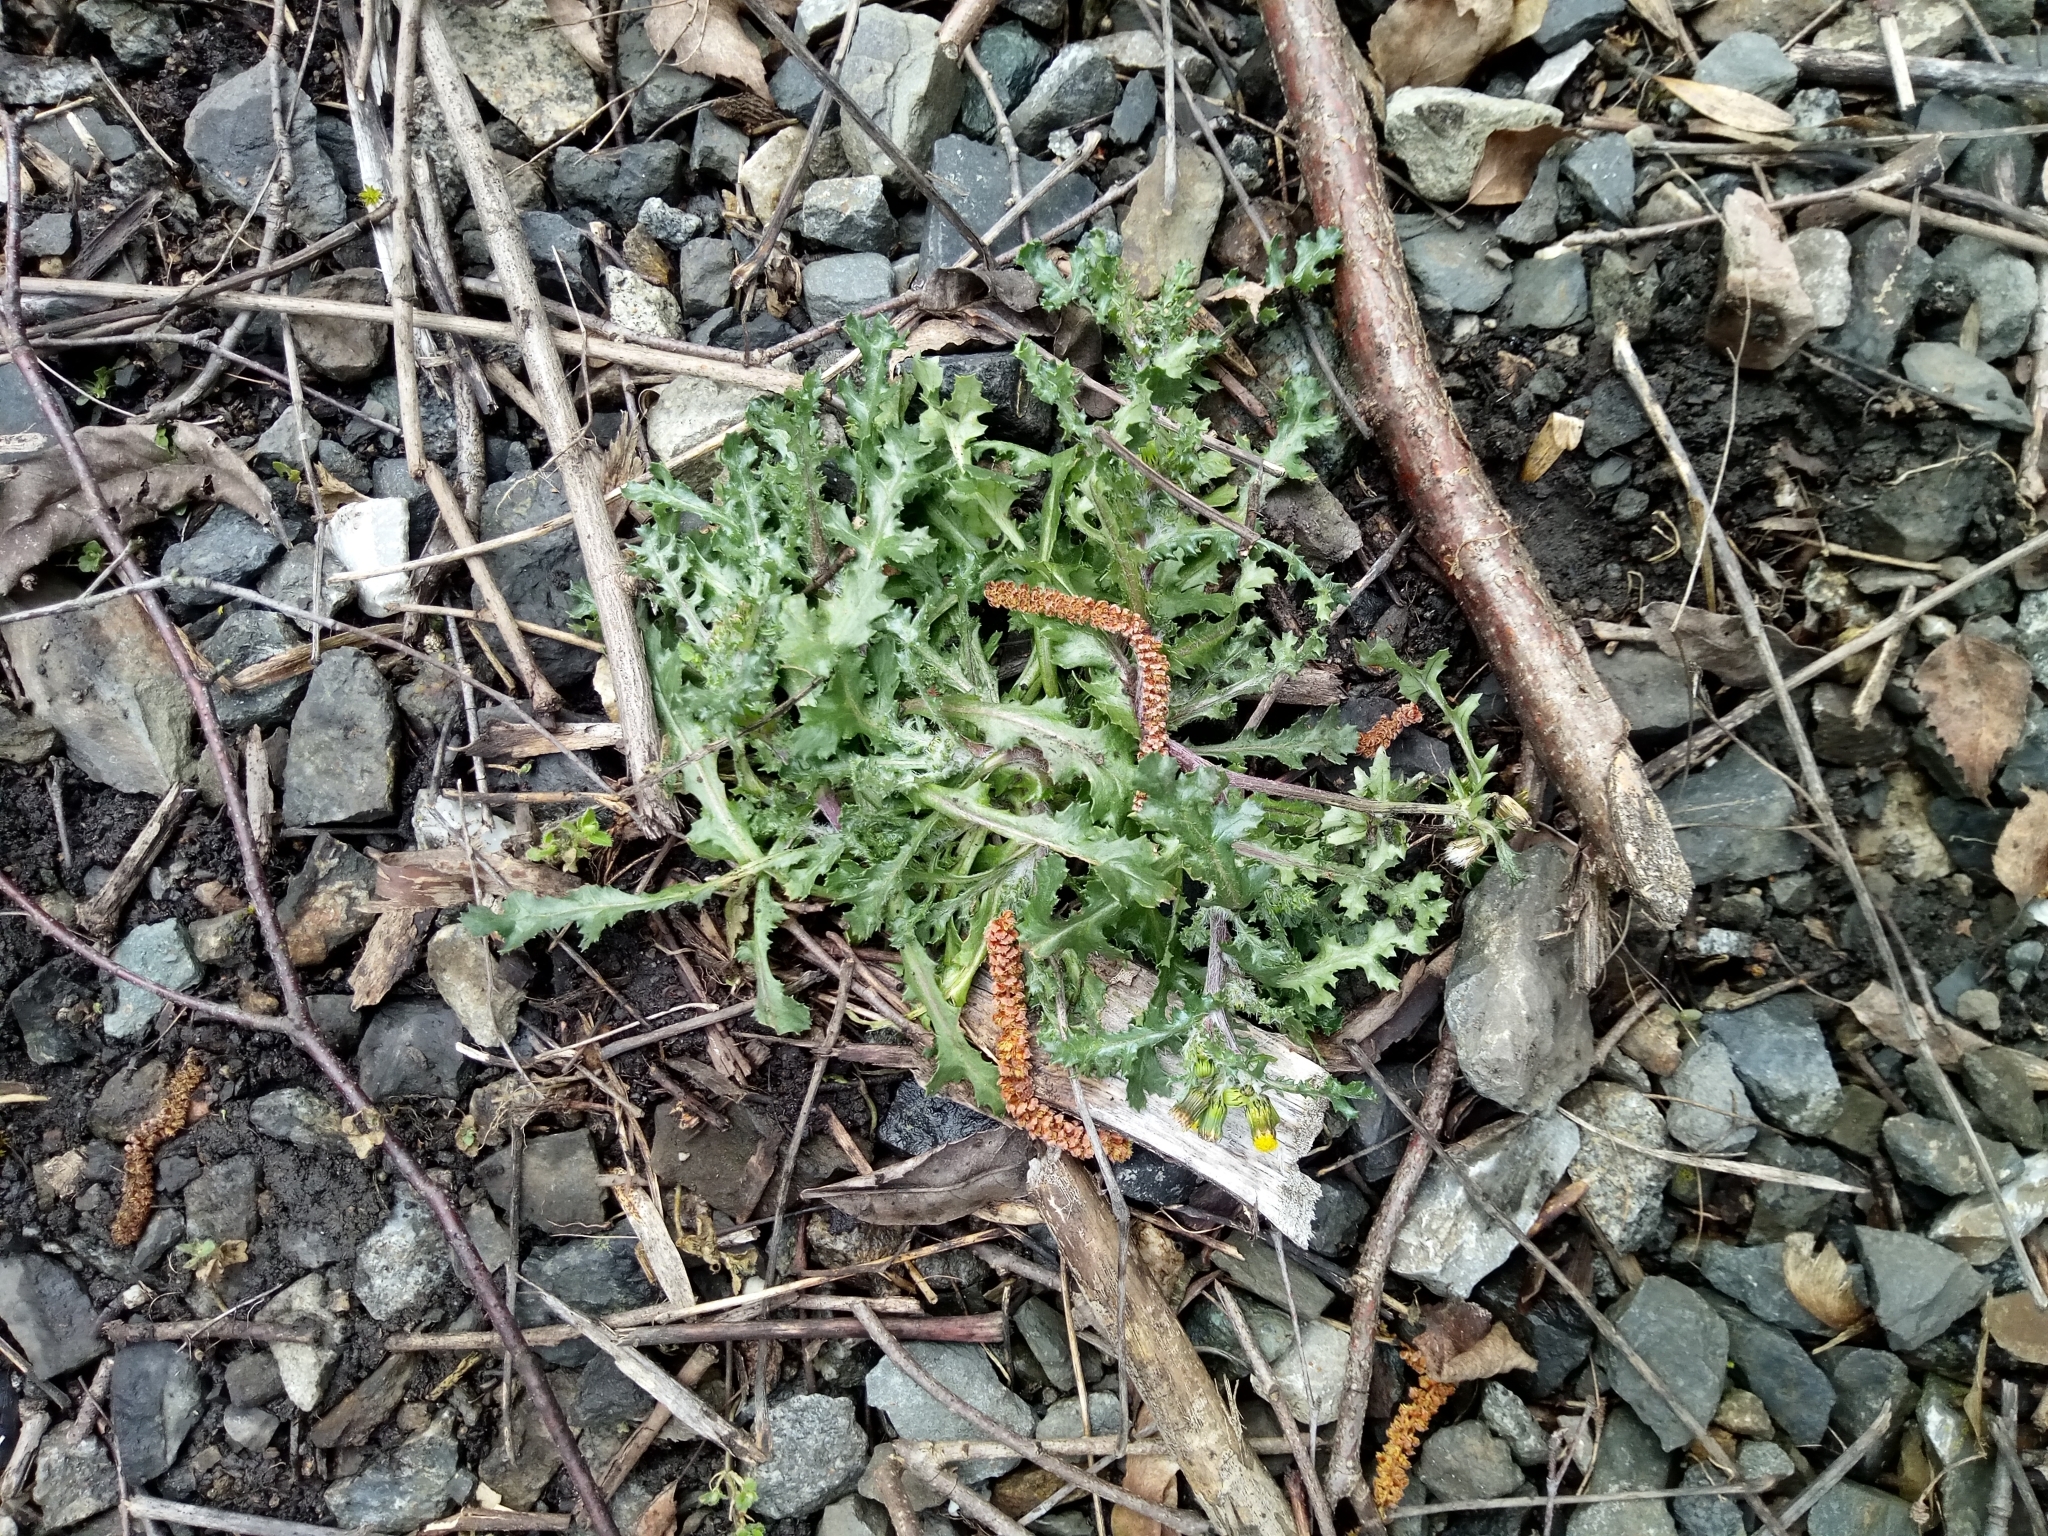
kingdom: Plantae
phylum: Tracheophyta
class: Magnoliopsida
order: Asterales
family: Asteraceae
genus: Senecio
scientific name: Senecio vulgaris
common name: Old-man-in-the-spring
